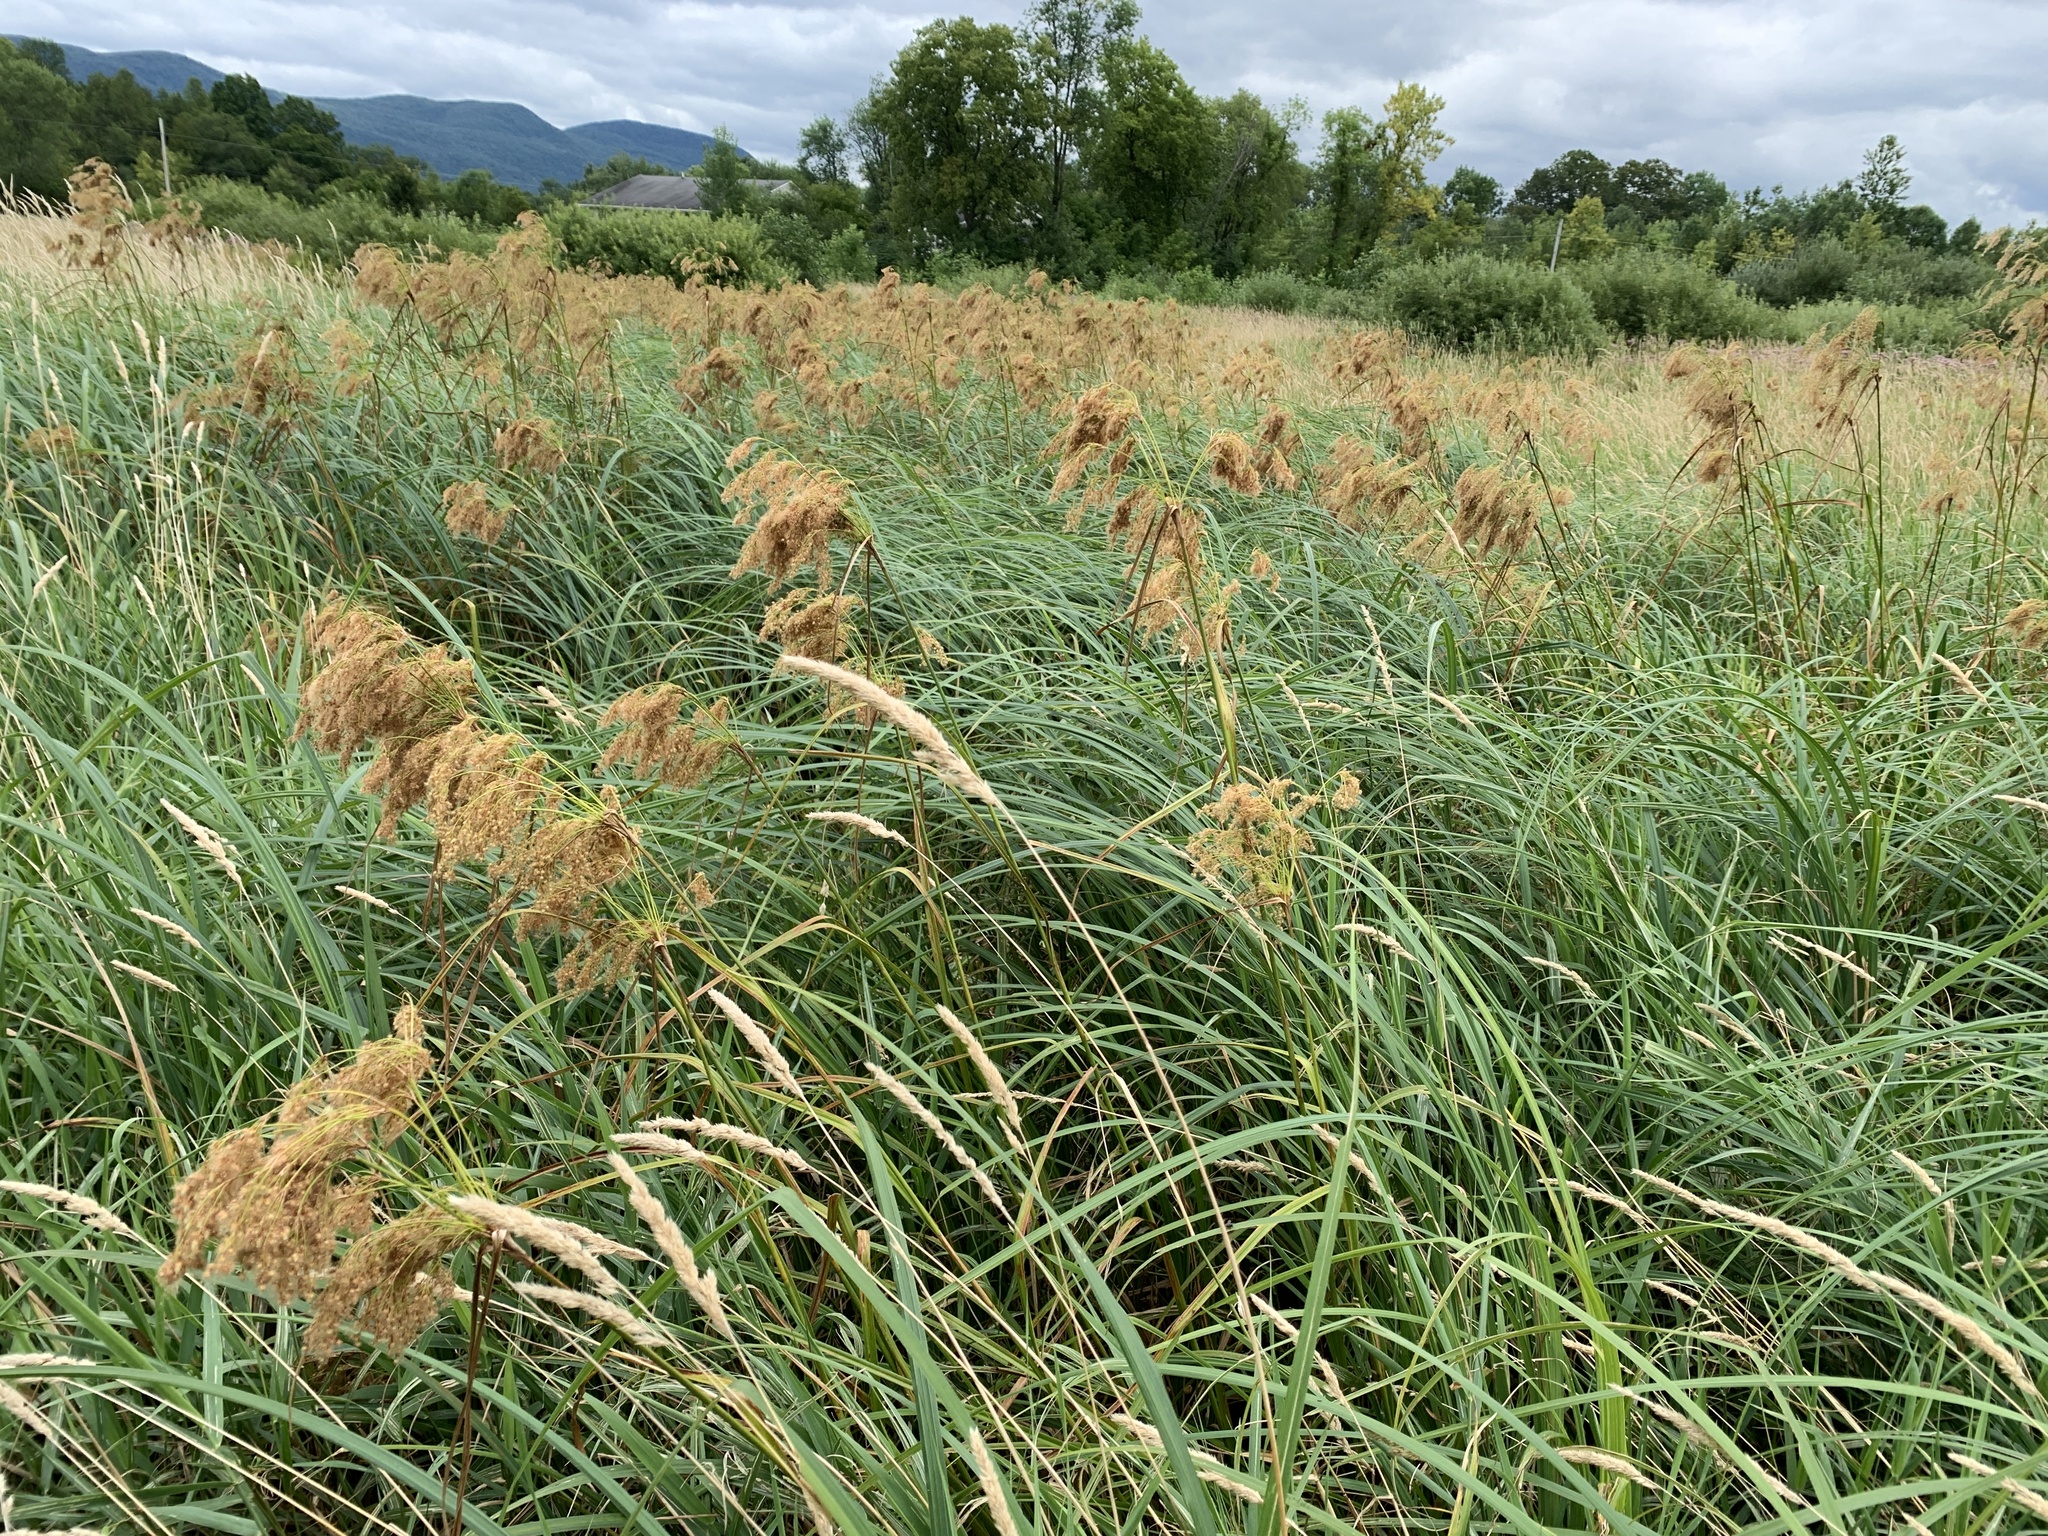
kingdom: Plantae
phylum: Tracheophyta
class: Liliopsida
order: Poales
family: Cyperaceae
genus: Scirpus
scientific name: Scirpus cyperinus
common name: Black-sheathed bulrush
